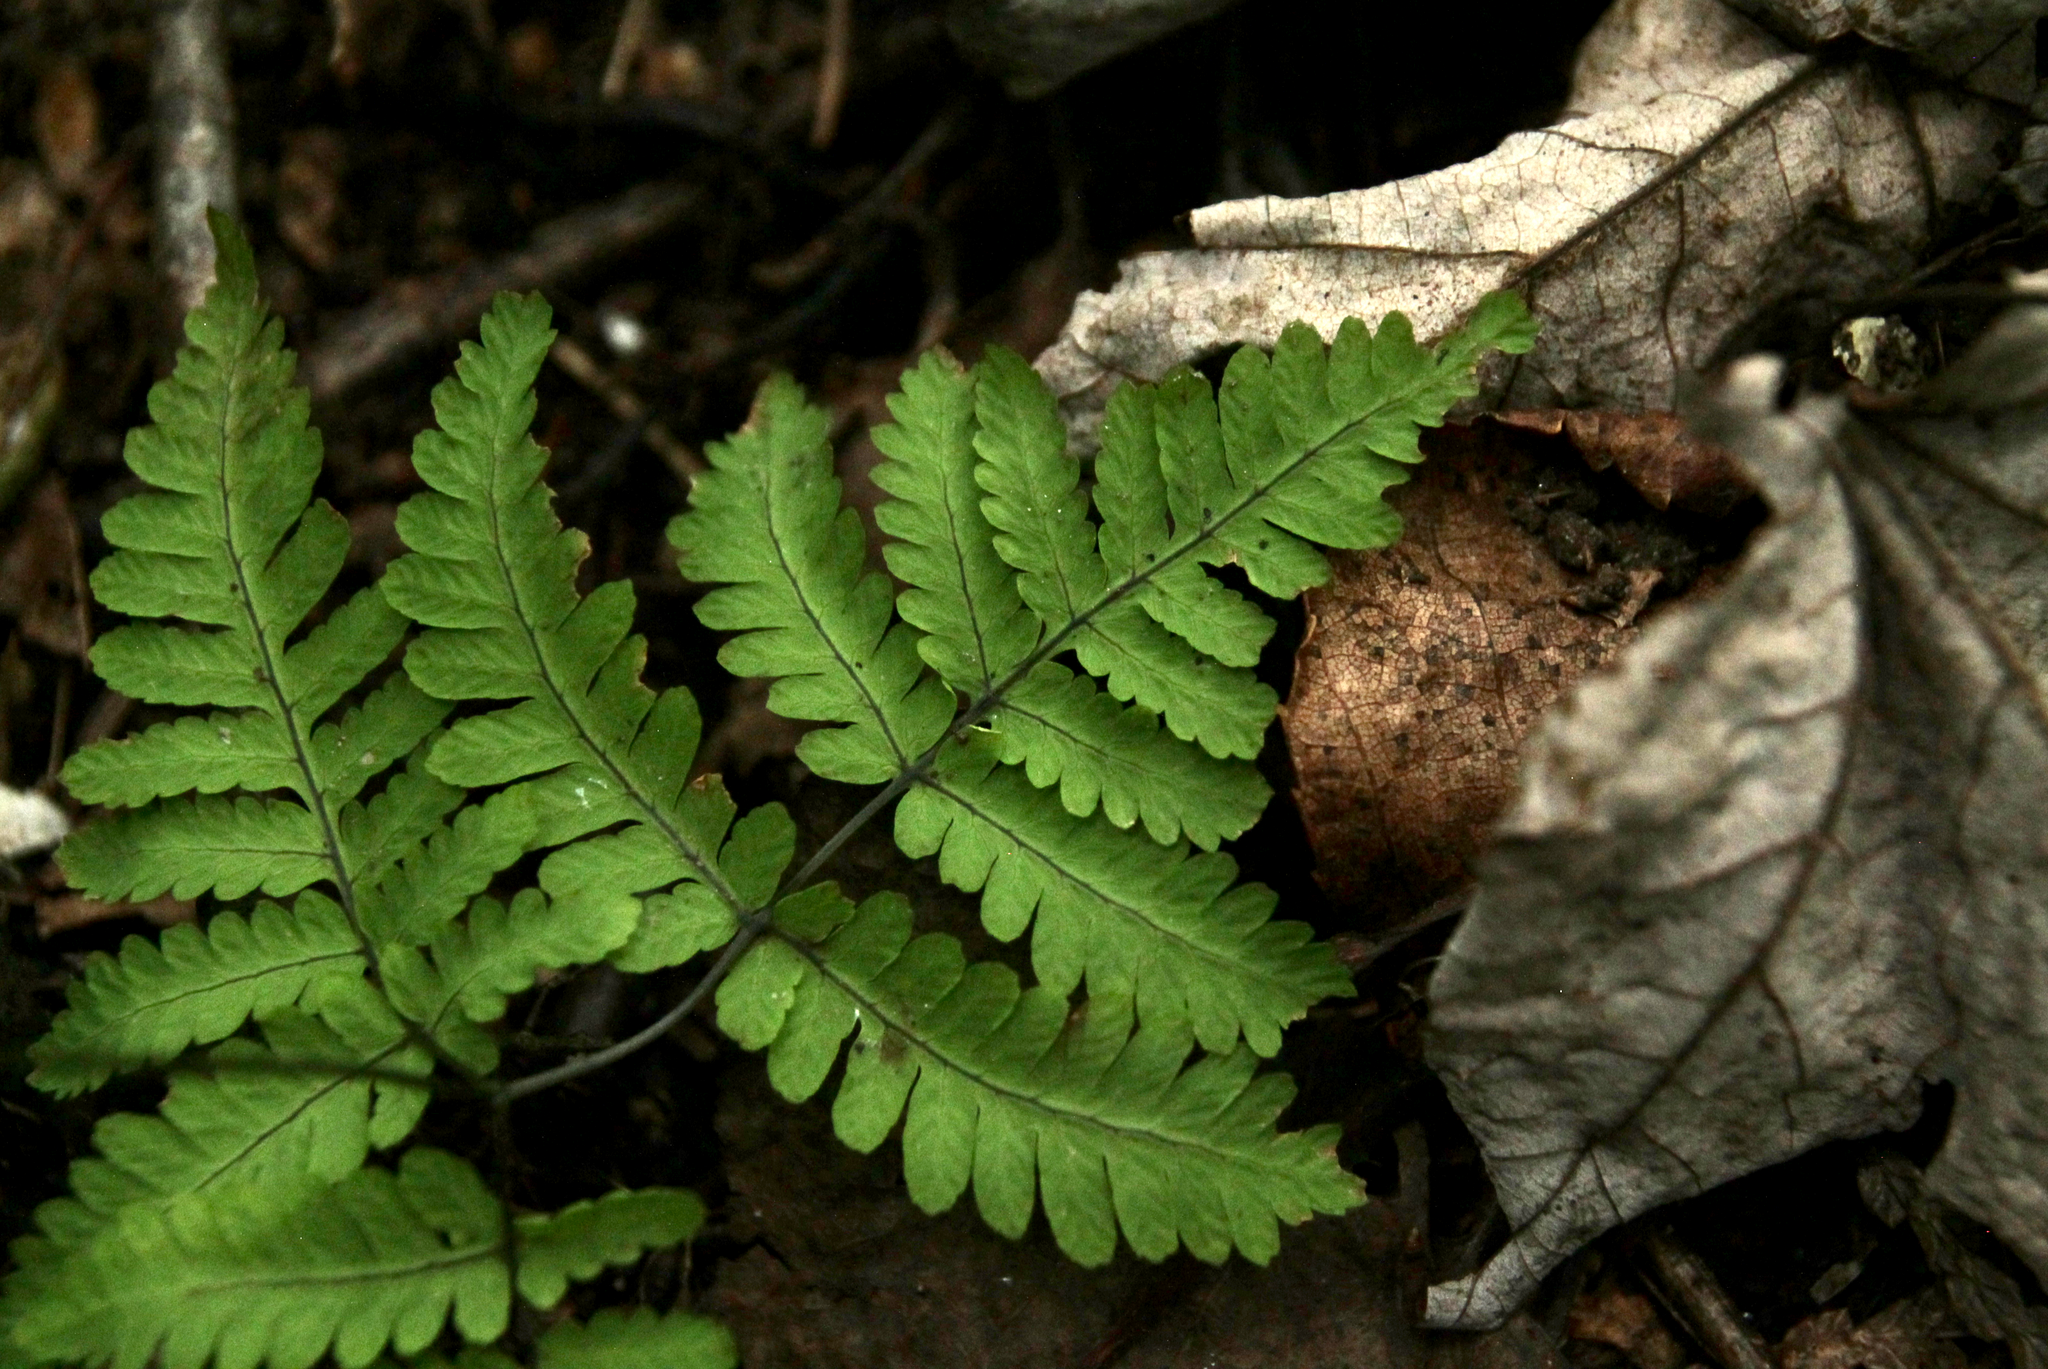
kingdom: Plantae
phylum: Tracheophyta
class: Polypodiopsida
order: Polypodiales
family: Cystopteridaceae
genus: Gymnocarpium
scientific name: Gymnocarpium dryopteris
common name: Oak fern
